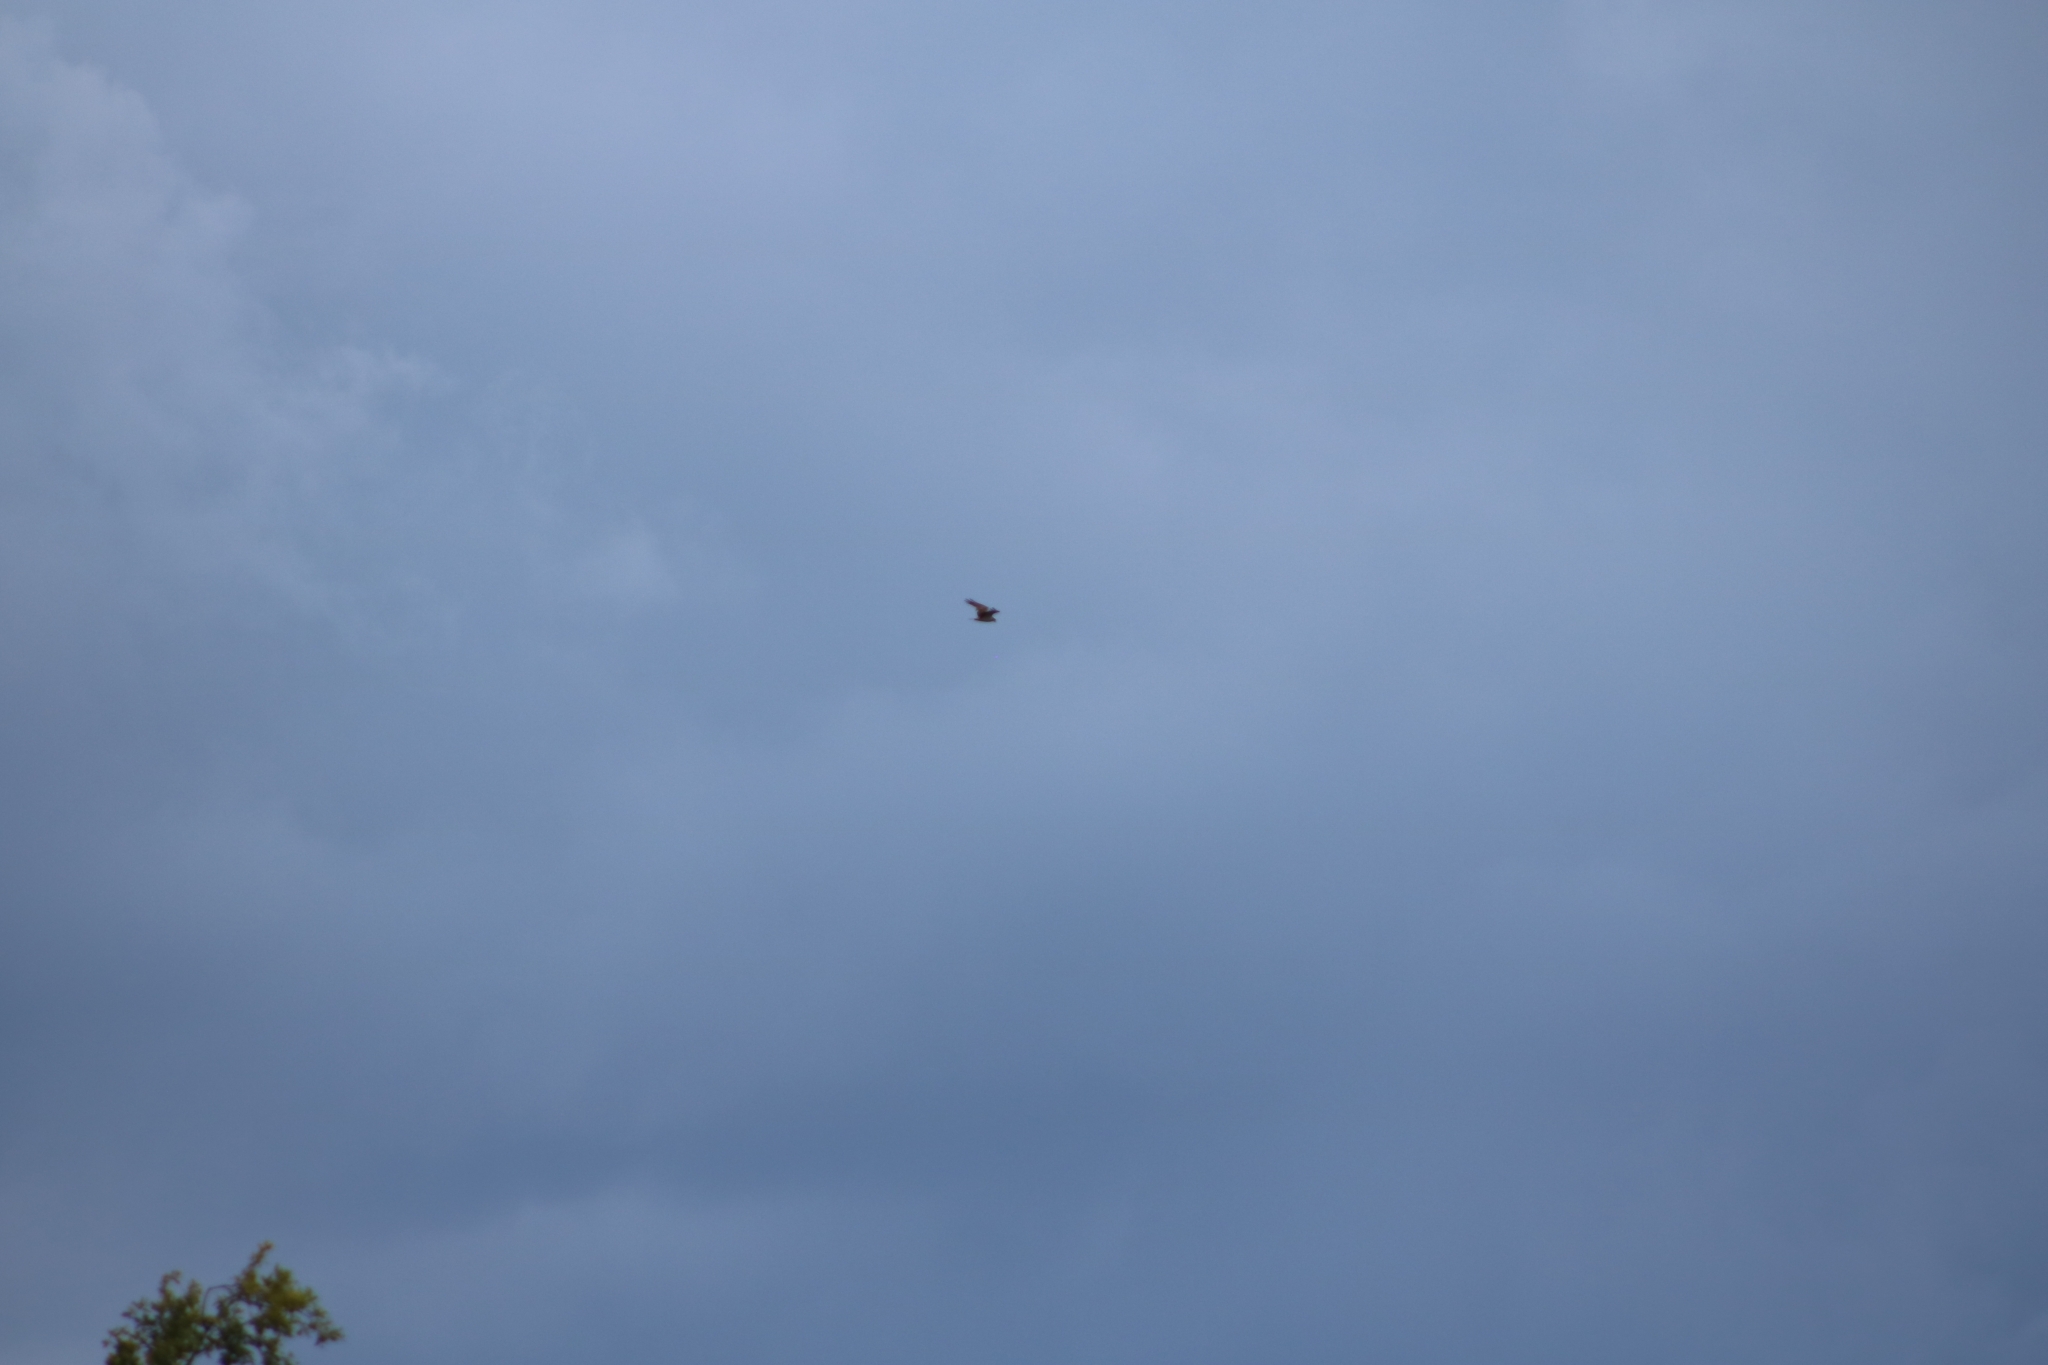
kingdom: Animalia
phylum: Chordata
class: Aves
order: Accipitriformes
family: Pandionidae
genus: Pandion
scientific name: Pandion haliaetus
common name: Osprey
